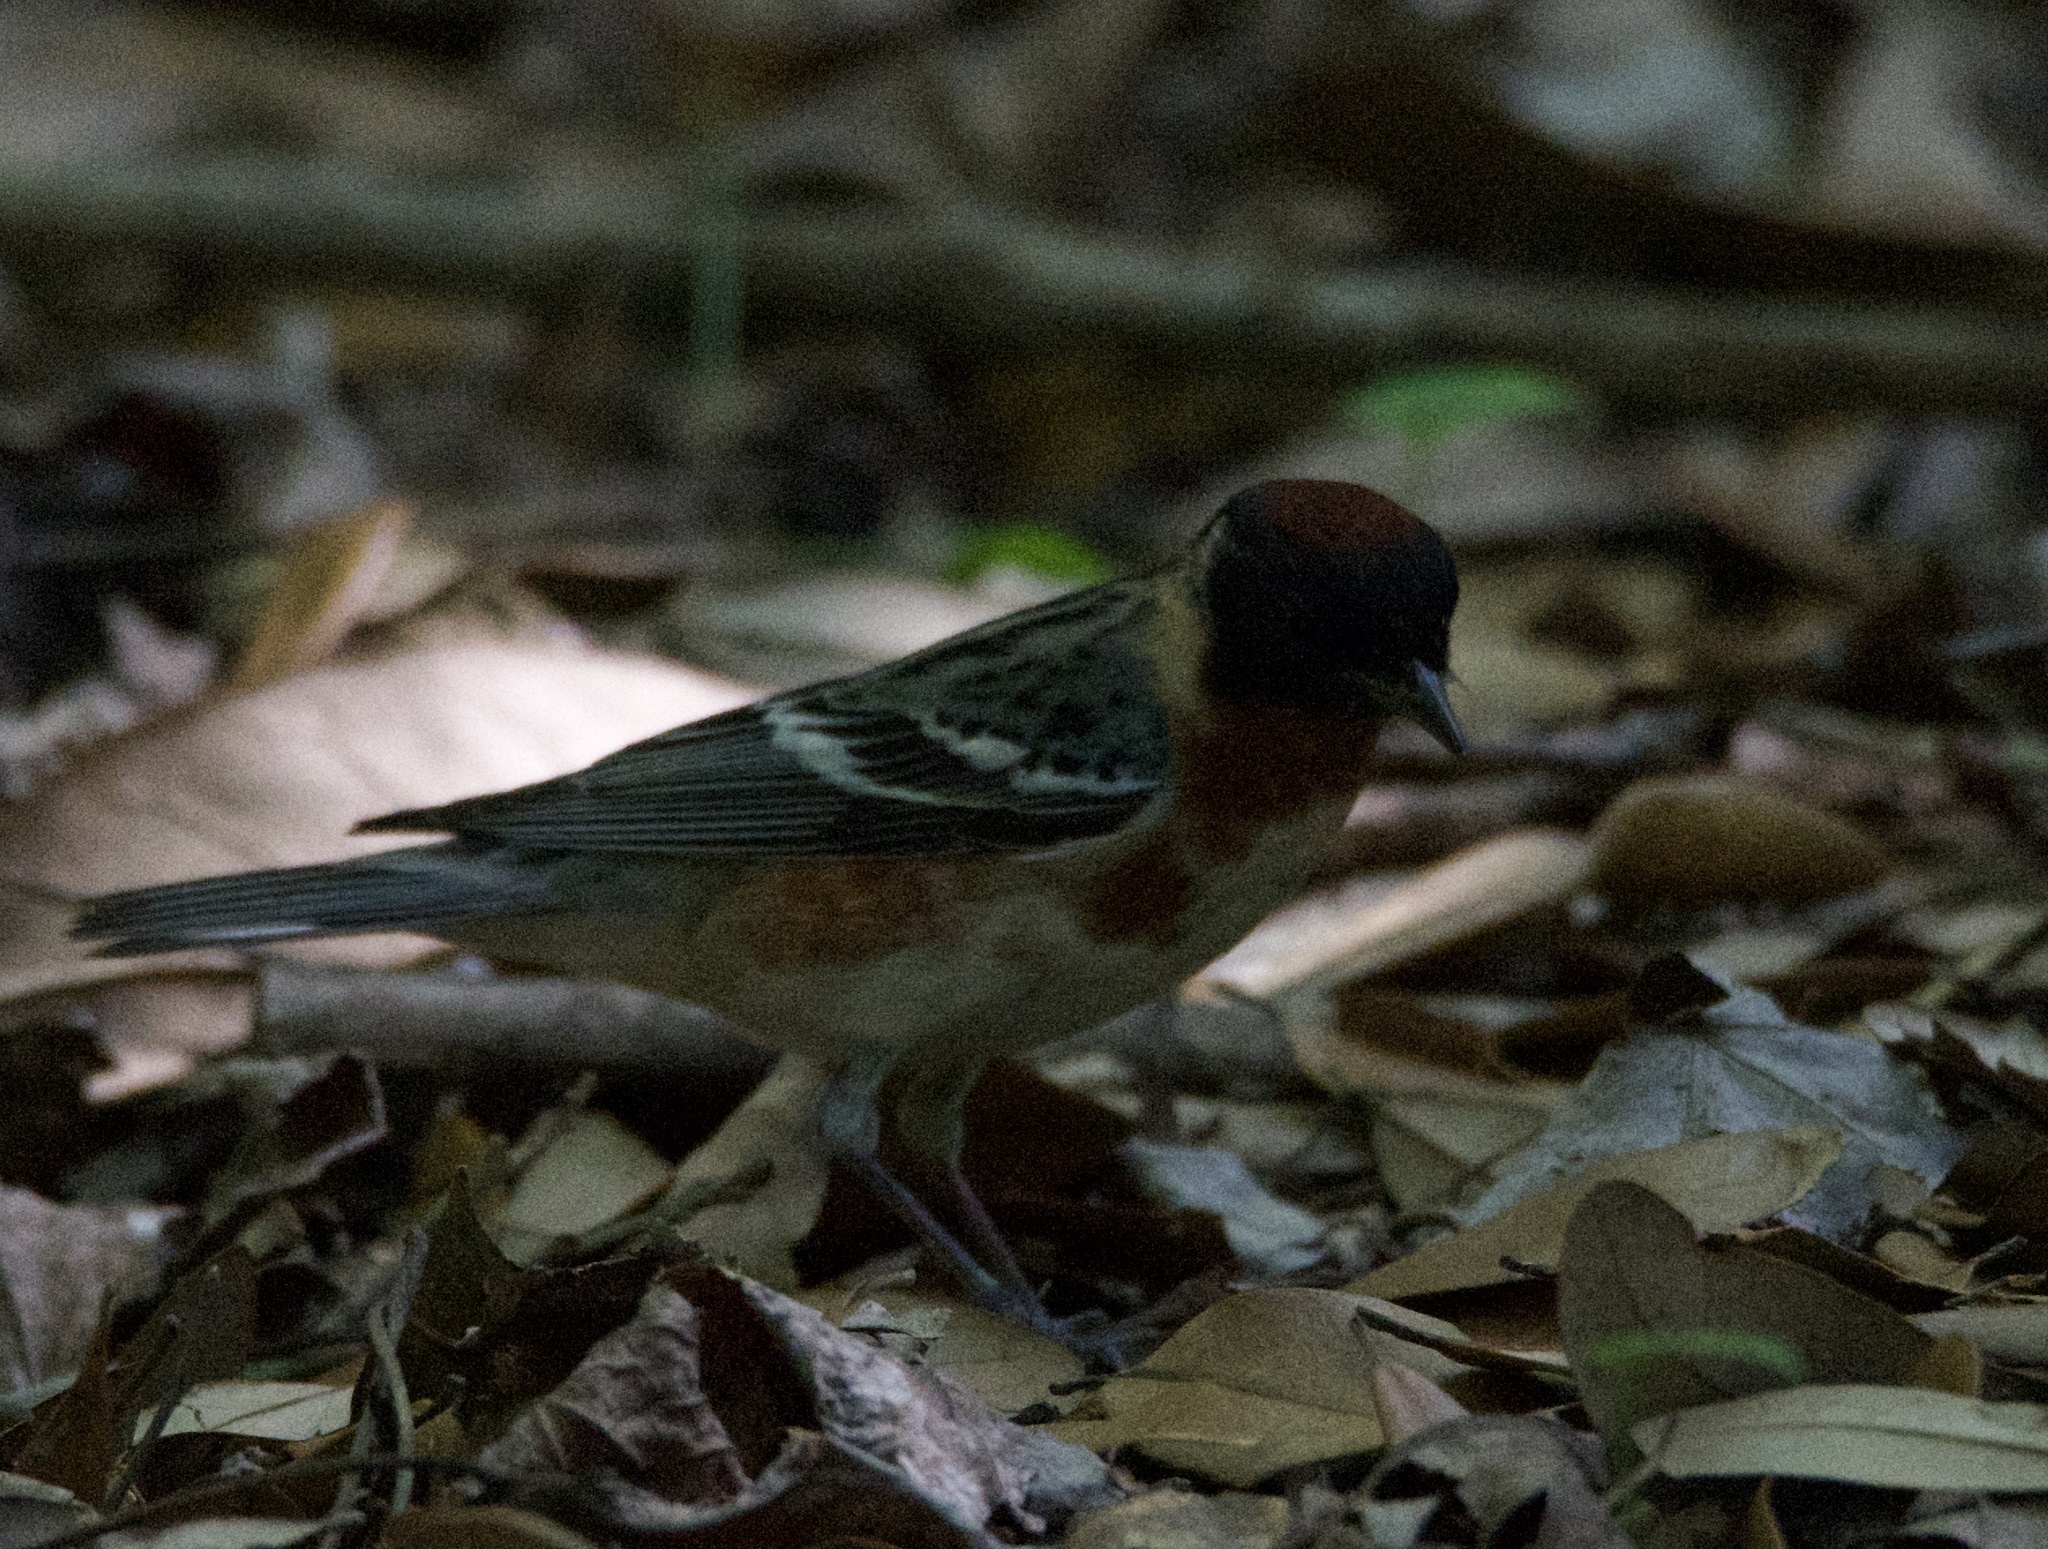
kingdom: Animalia
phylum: Chordata
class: Aves
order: Passeriformes
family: Parulidae
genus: Setophaga
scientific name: Setophaga castanea
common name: Bay-breasted warbler
